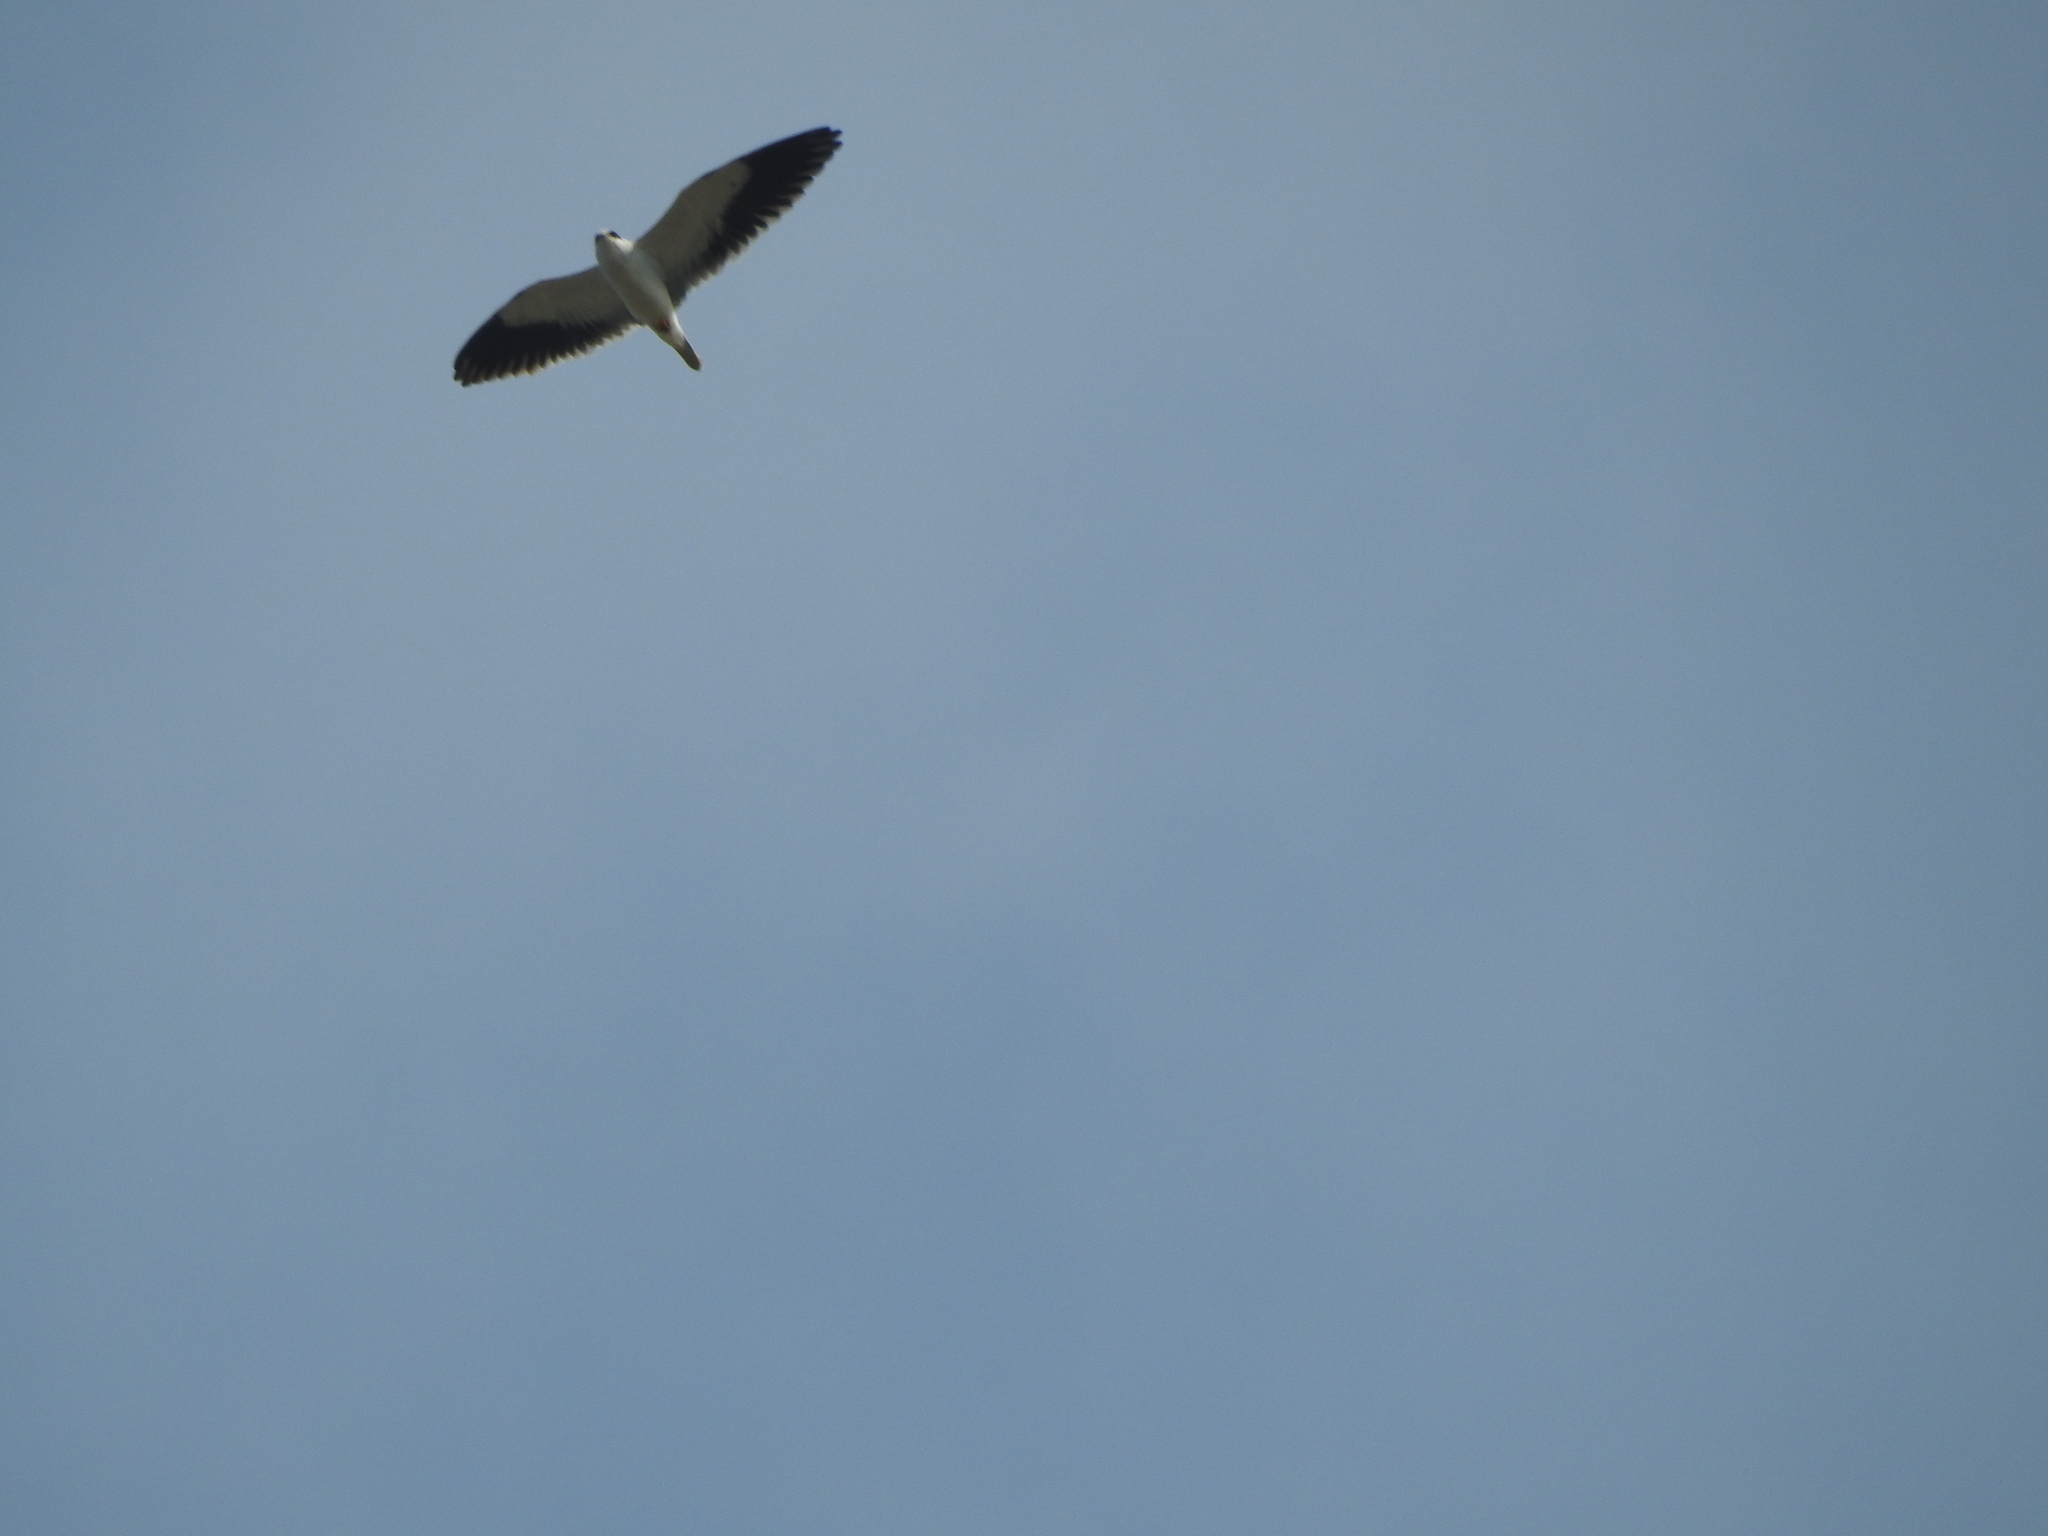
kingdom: Animalia
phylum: Chordata
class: Aves
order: Accipitriformes
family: Accipitridae
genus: Elanus
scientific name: Elanus caeruleus
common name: Black-winged kite
